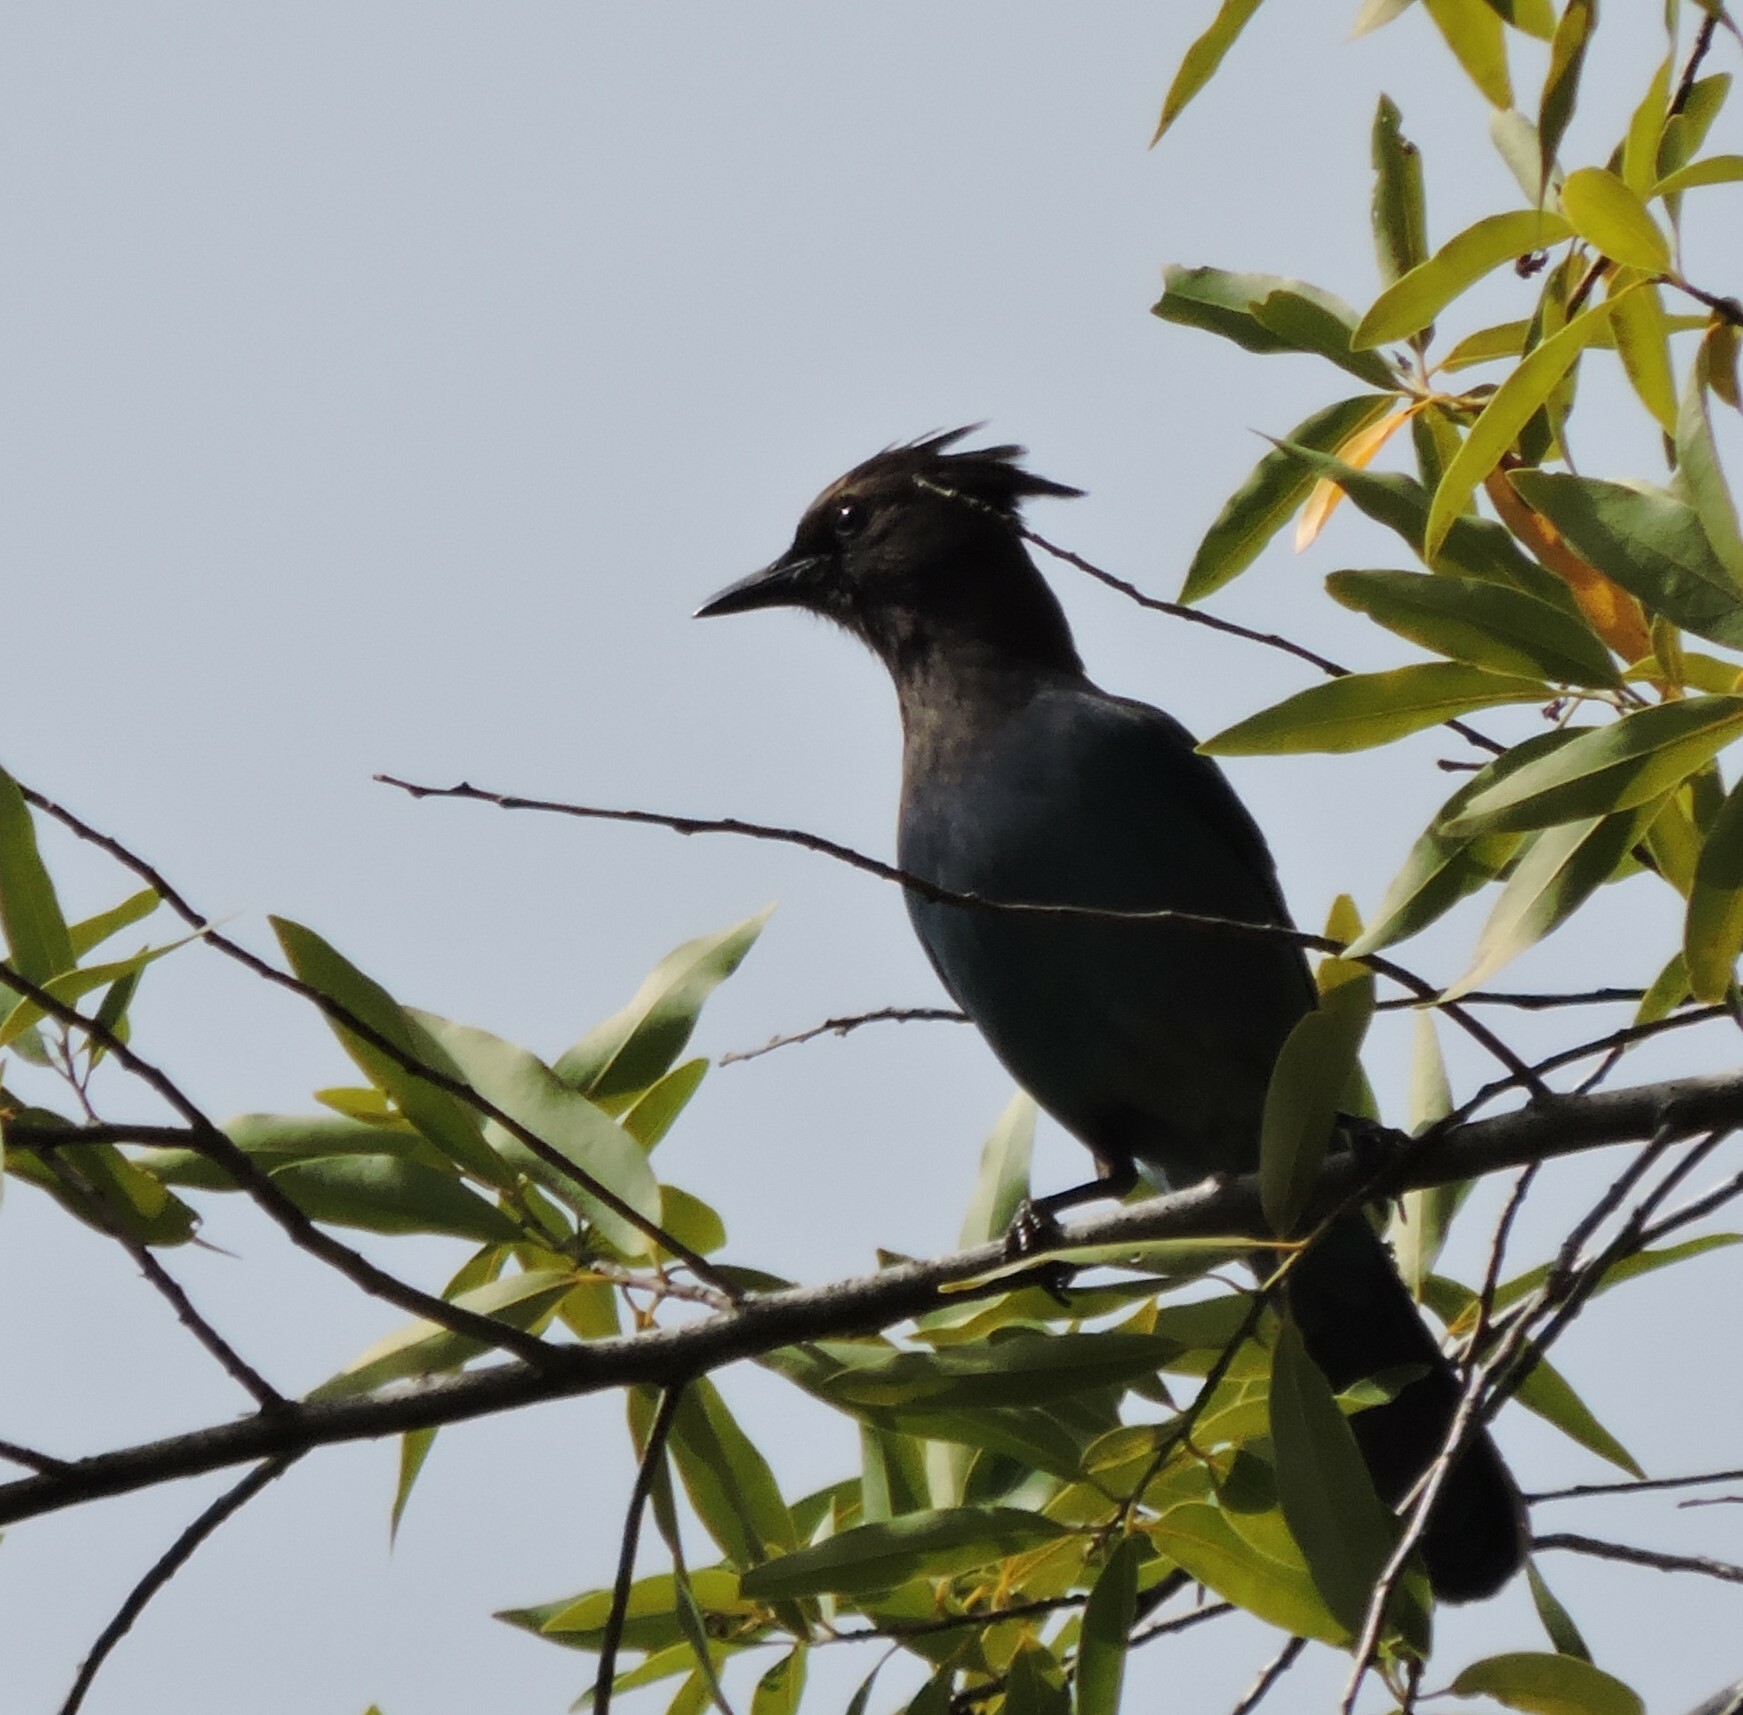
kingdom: Animalia
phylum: Chordata
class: Aves
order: Passeriformes
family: Corvidae
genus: Cyanocitta
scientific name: Cyanocitta stelleri
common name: Steller's jay
